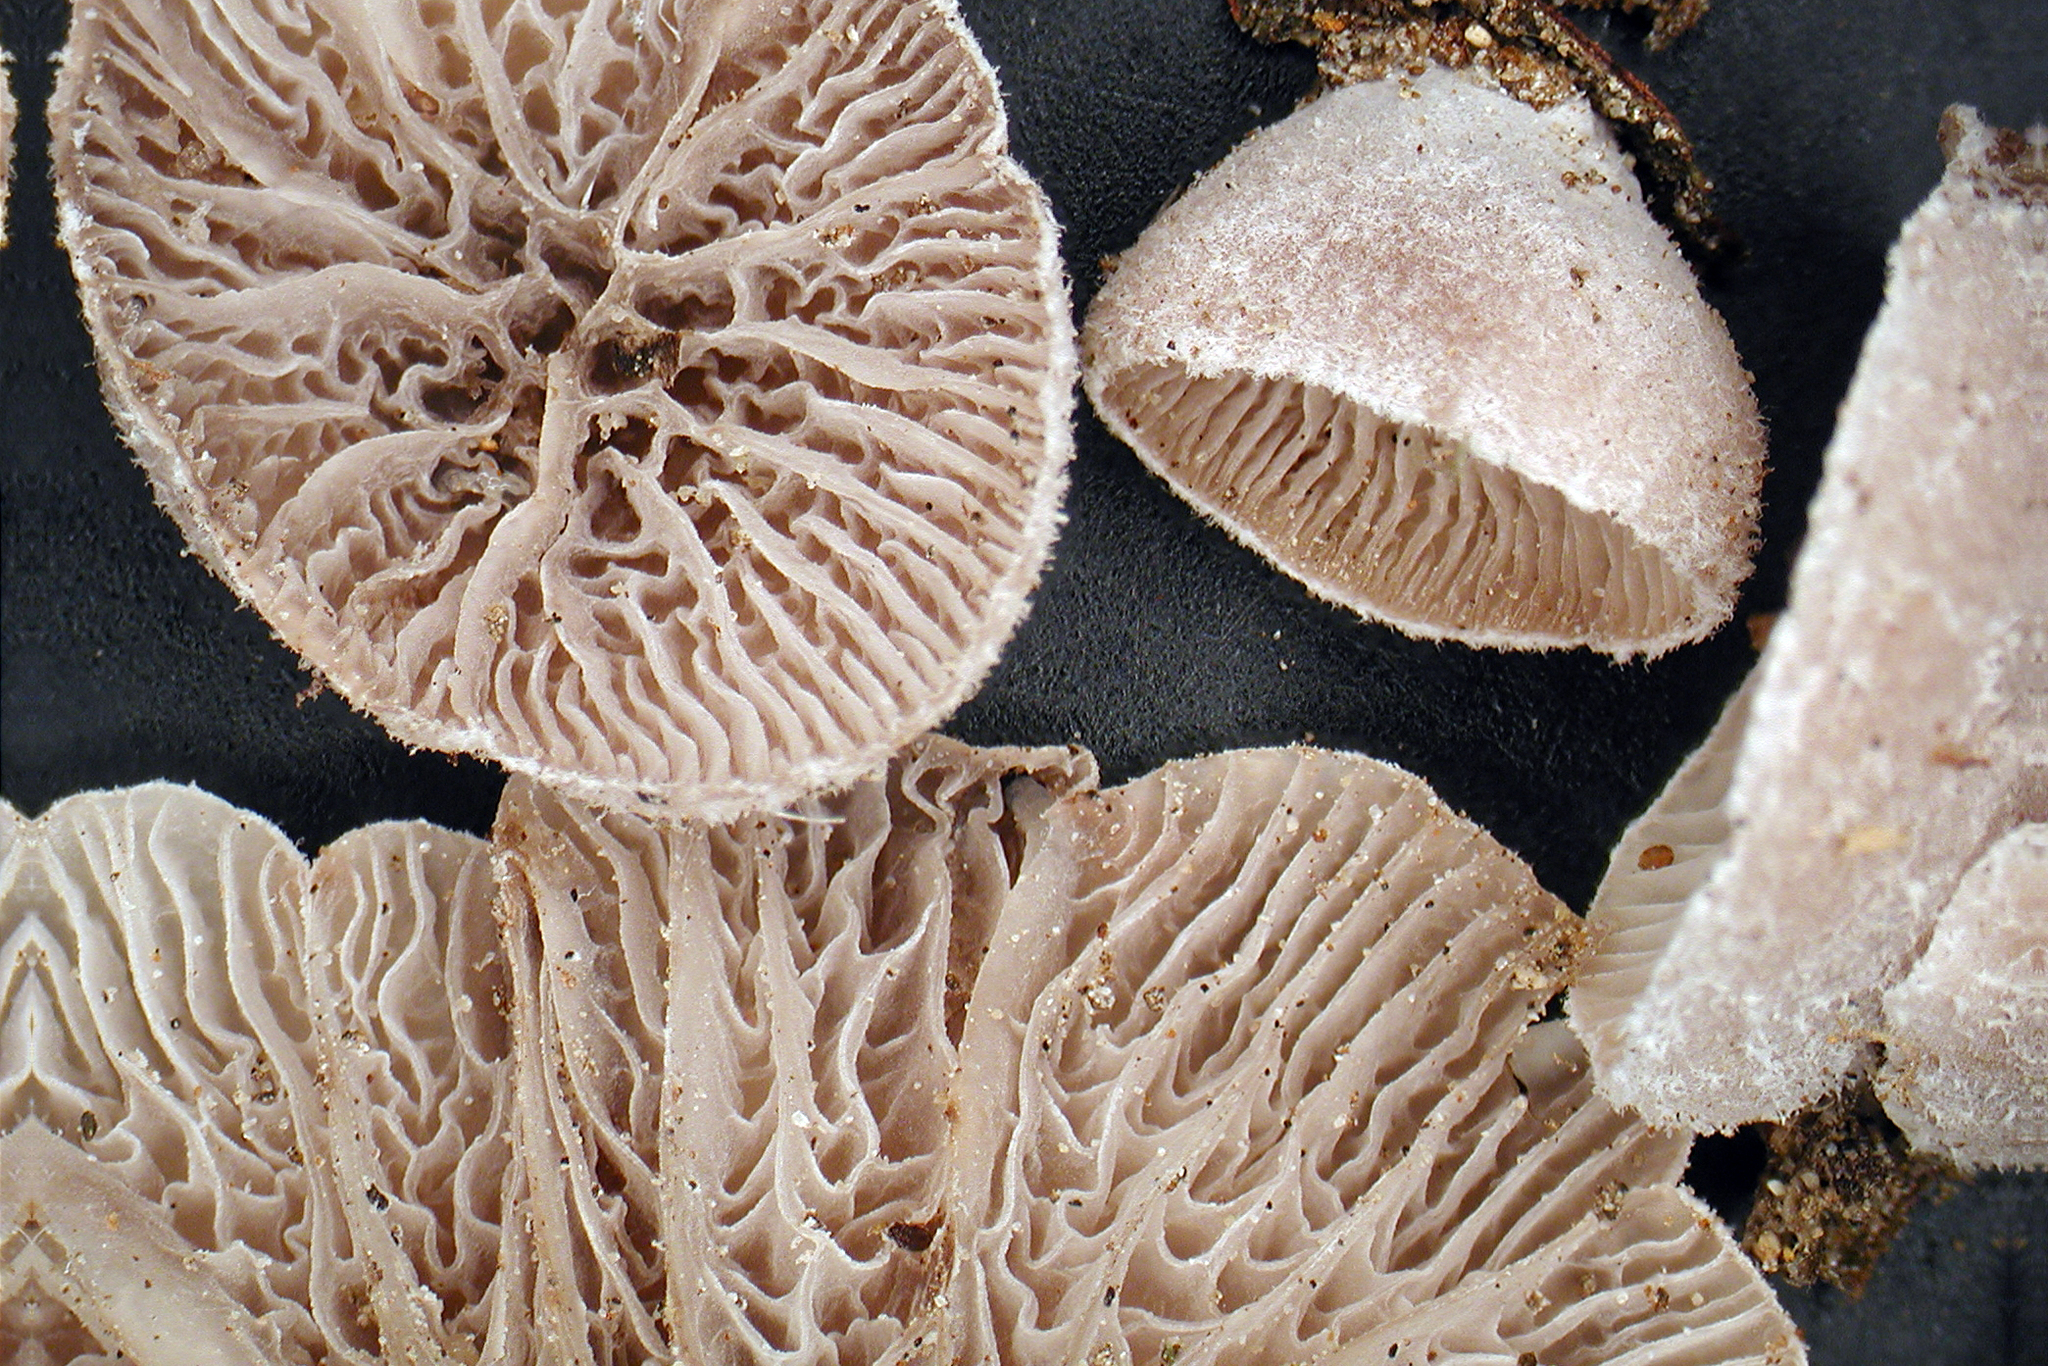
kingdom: Fungi
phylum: Basidiomycota
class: Agaricomycetes
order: Agaricales
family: Pleurotaceae
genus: Resupinatus
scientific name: Resupinatus vinosolividus
